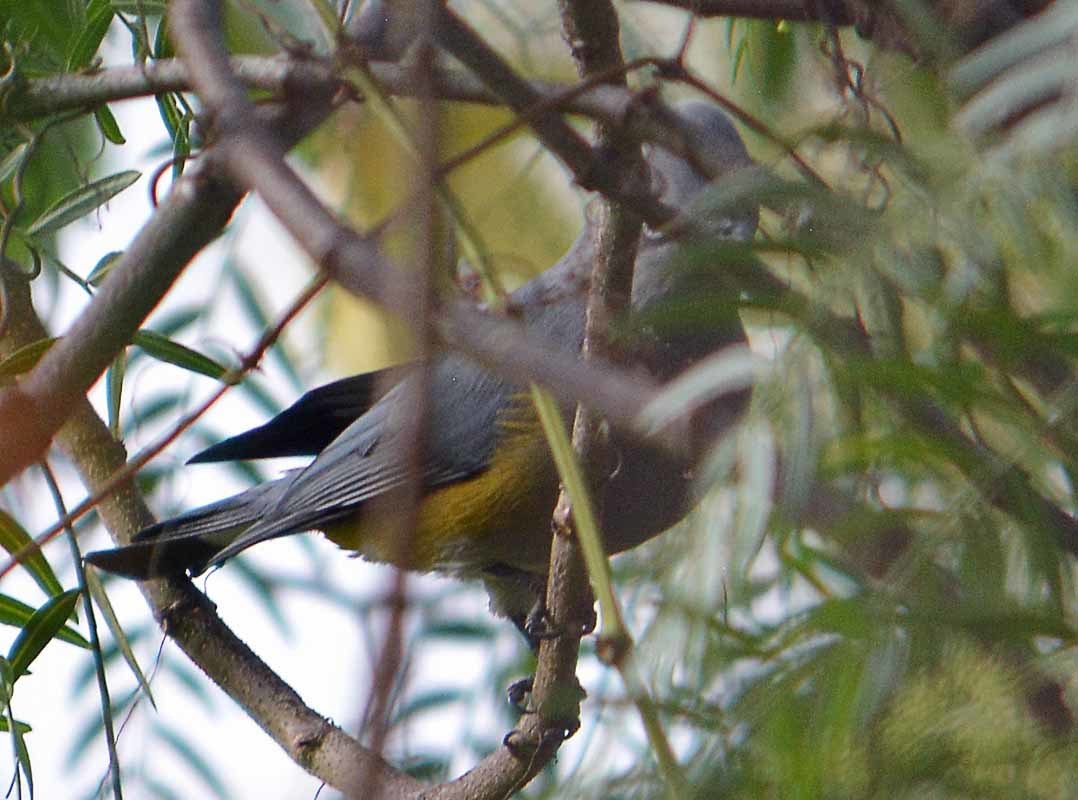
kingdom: Animalia
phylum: Chordata
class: Aves
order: Passeriformes
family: Ptilogonatidae
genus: Ptilogonys
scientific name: Ptilogonys cinereus
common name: Gray silky-flycatcher
